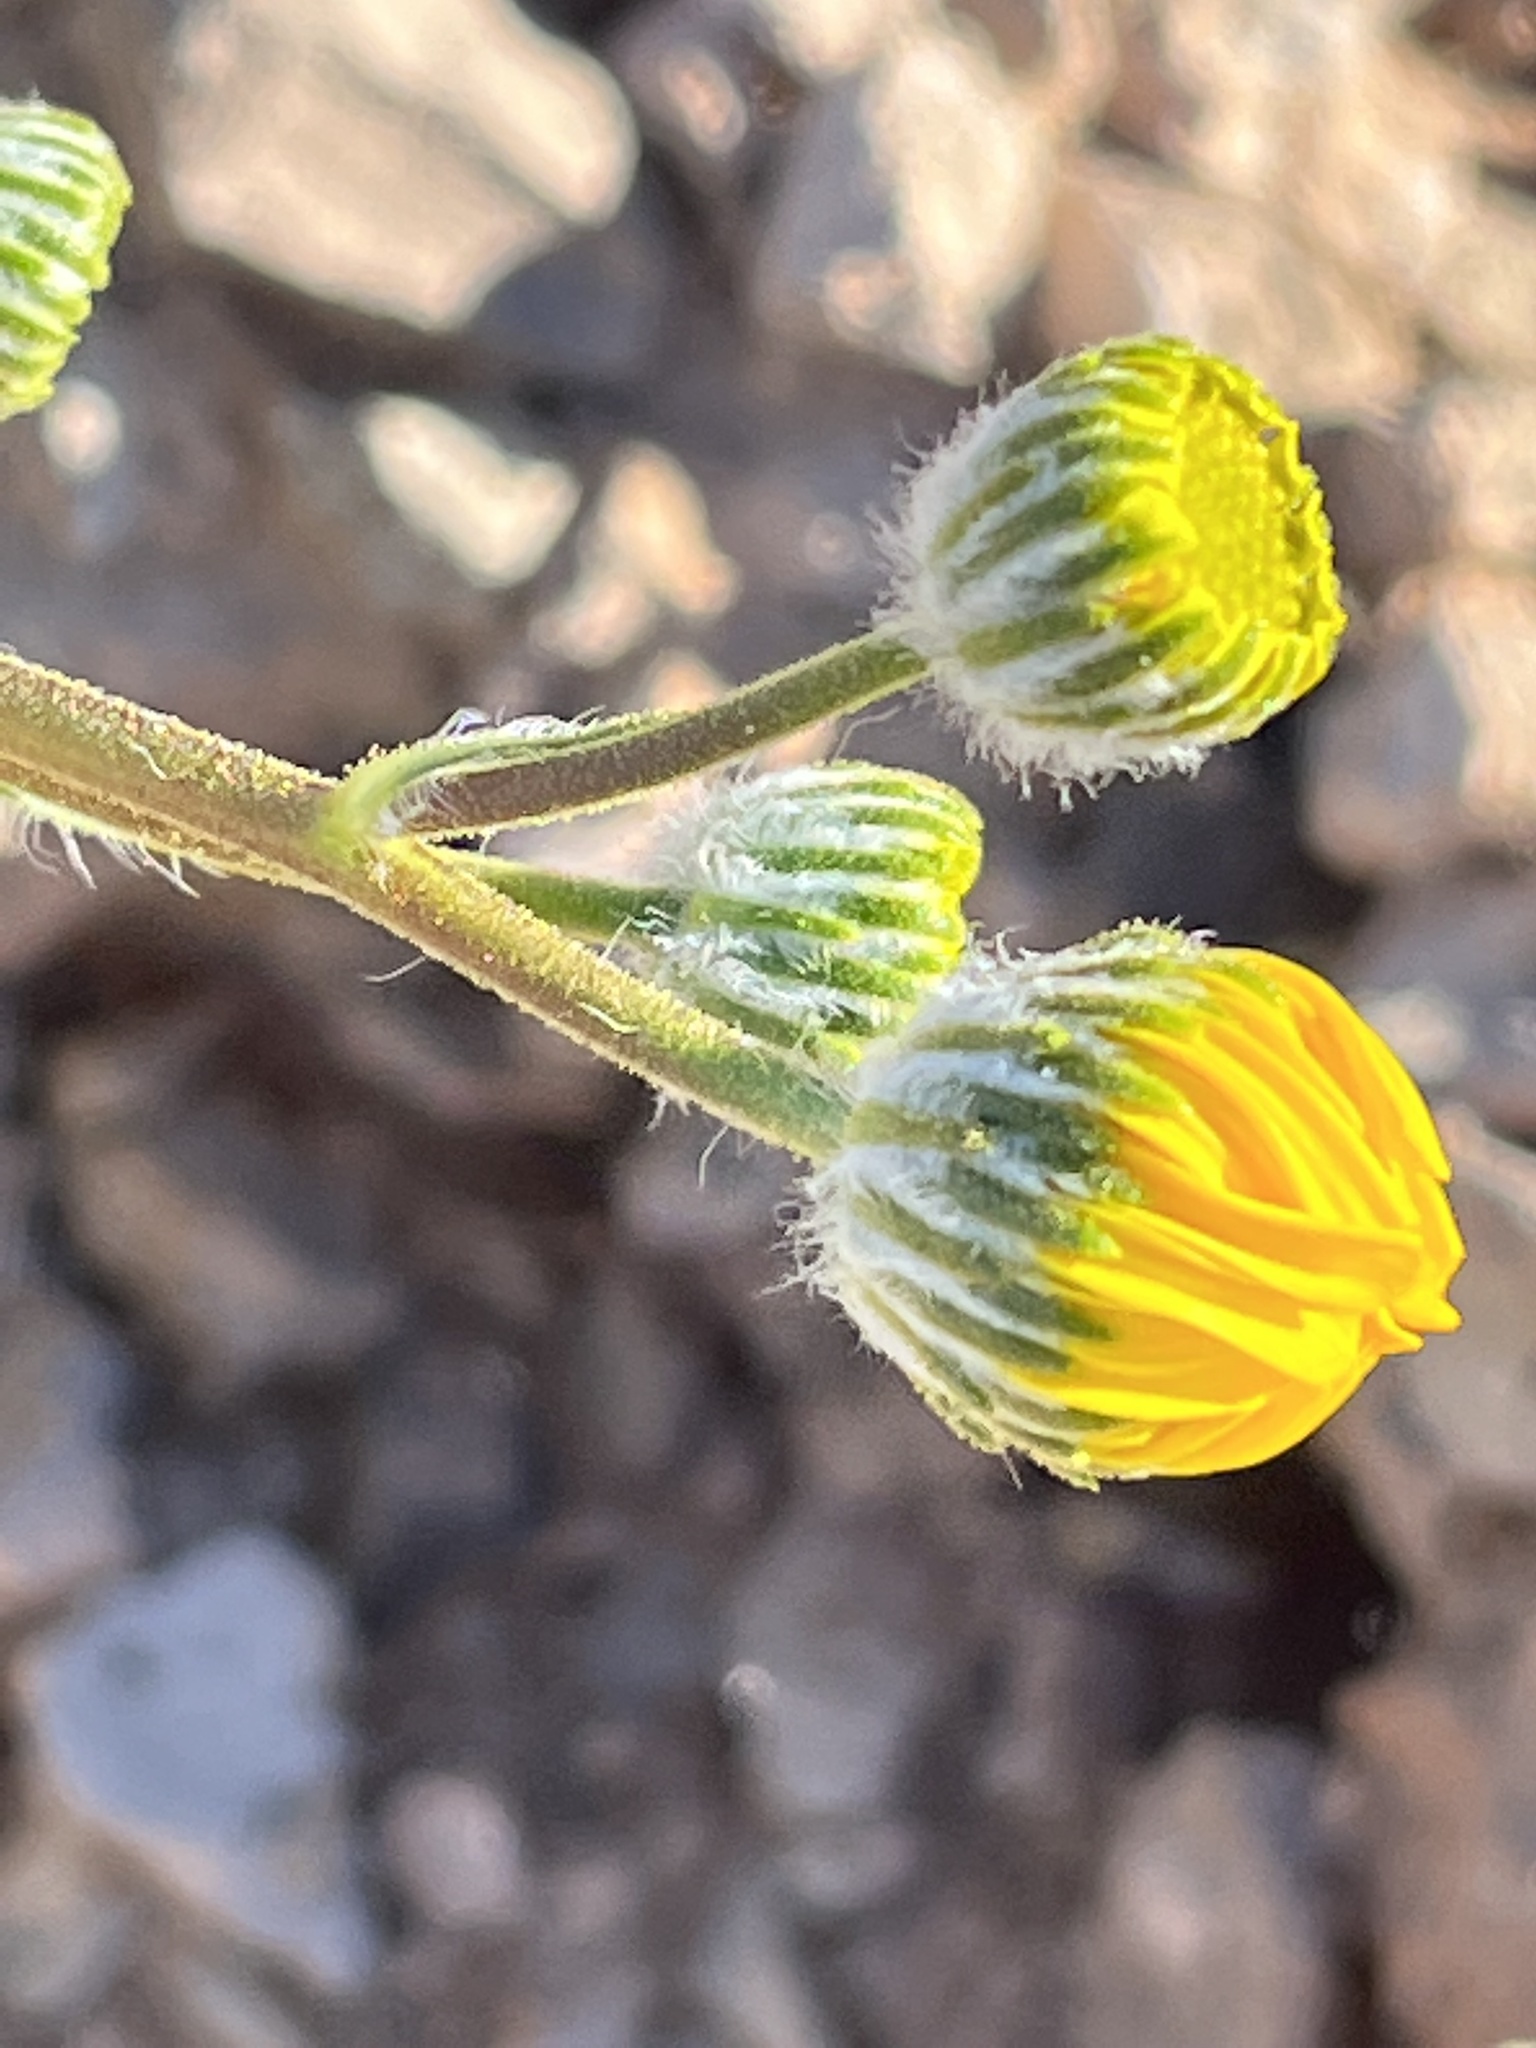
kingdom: Plantae
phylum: Tracheophyta
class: Magnoliopsida
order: Asterales
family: Asteraceae
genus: Geraea
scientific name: Geraea canescens
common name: Desert-gold
